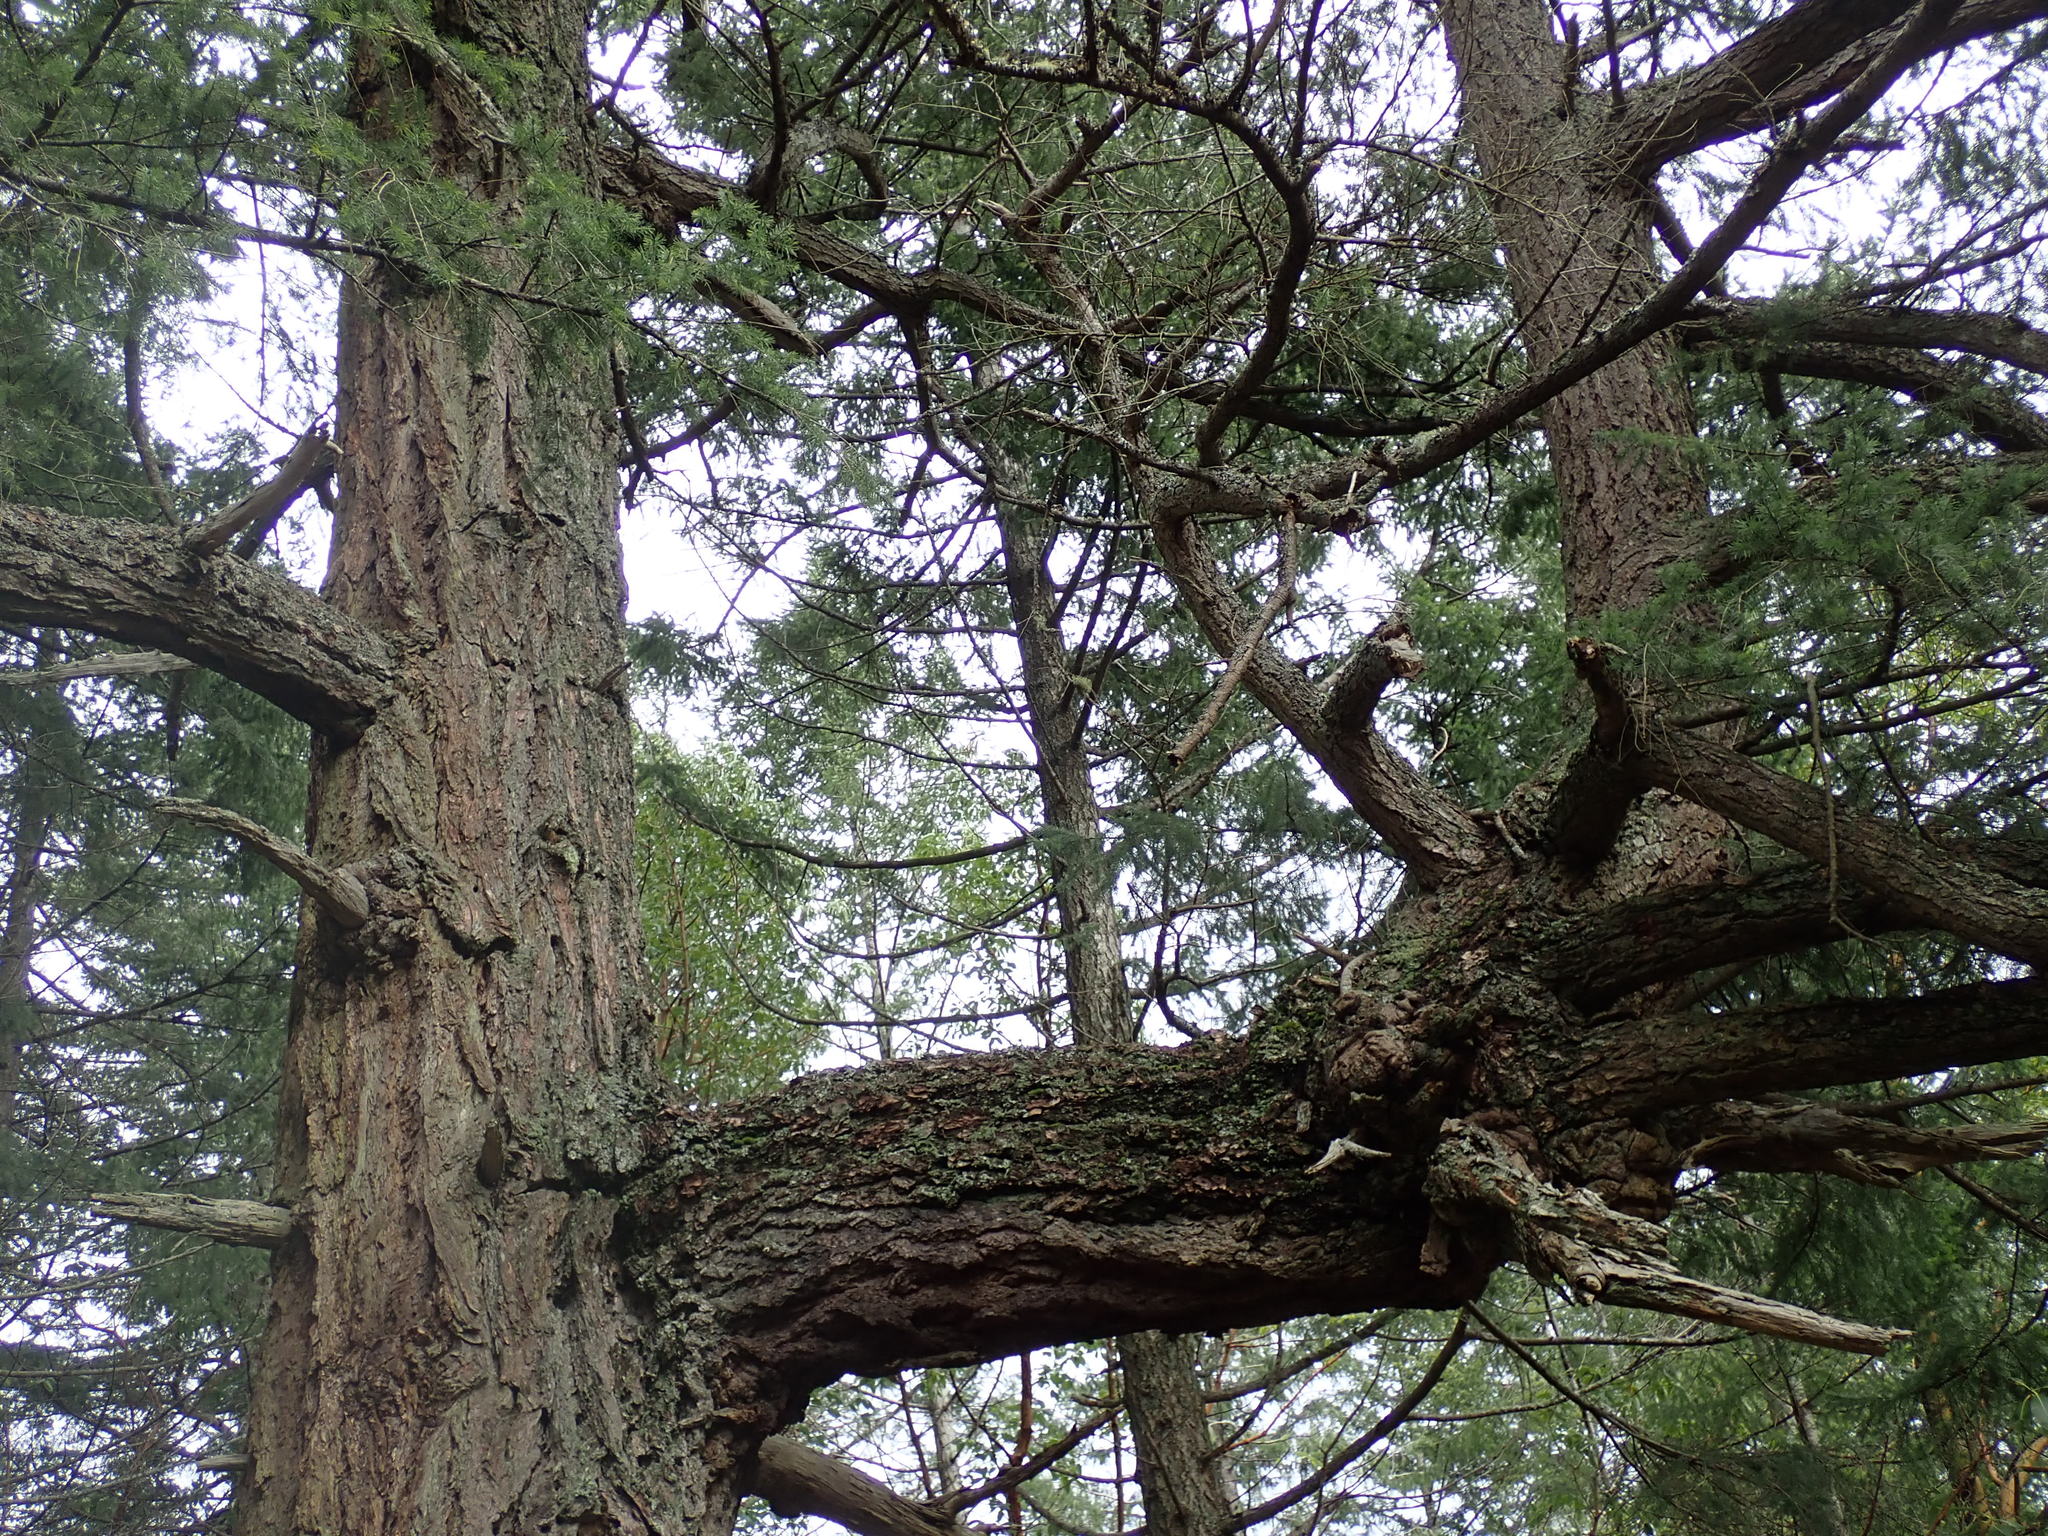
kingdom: Plantae
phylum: Tracheophyta
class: Pinopsida
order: Pinales
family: Pinaceae
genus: Pseudotsuga
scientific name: Pseudotsuga menziesii
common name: Douglas fir
